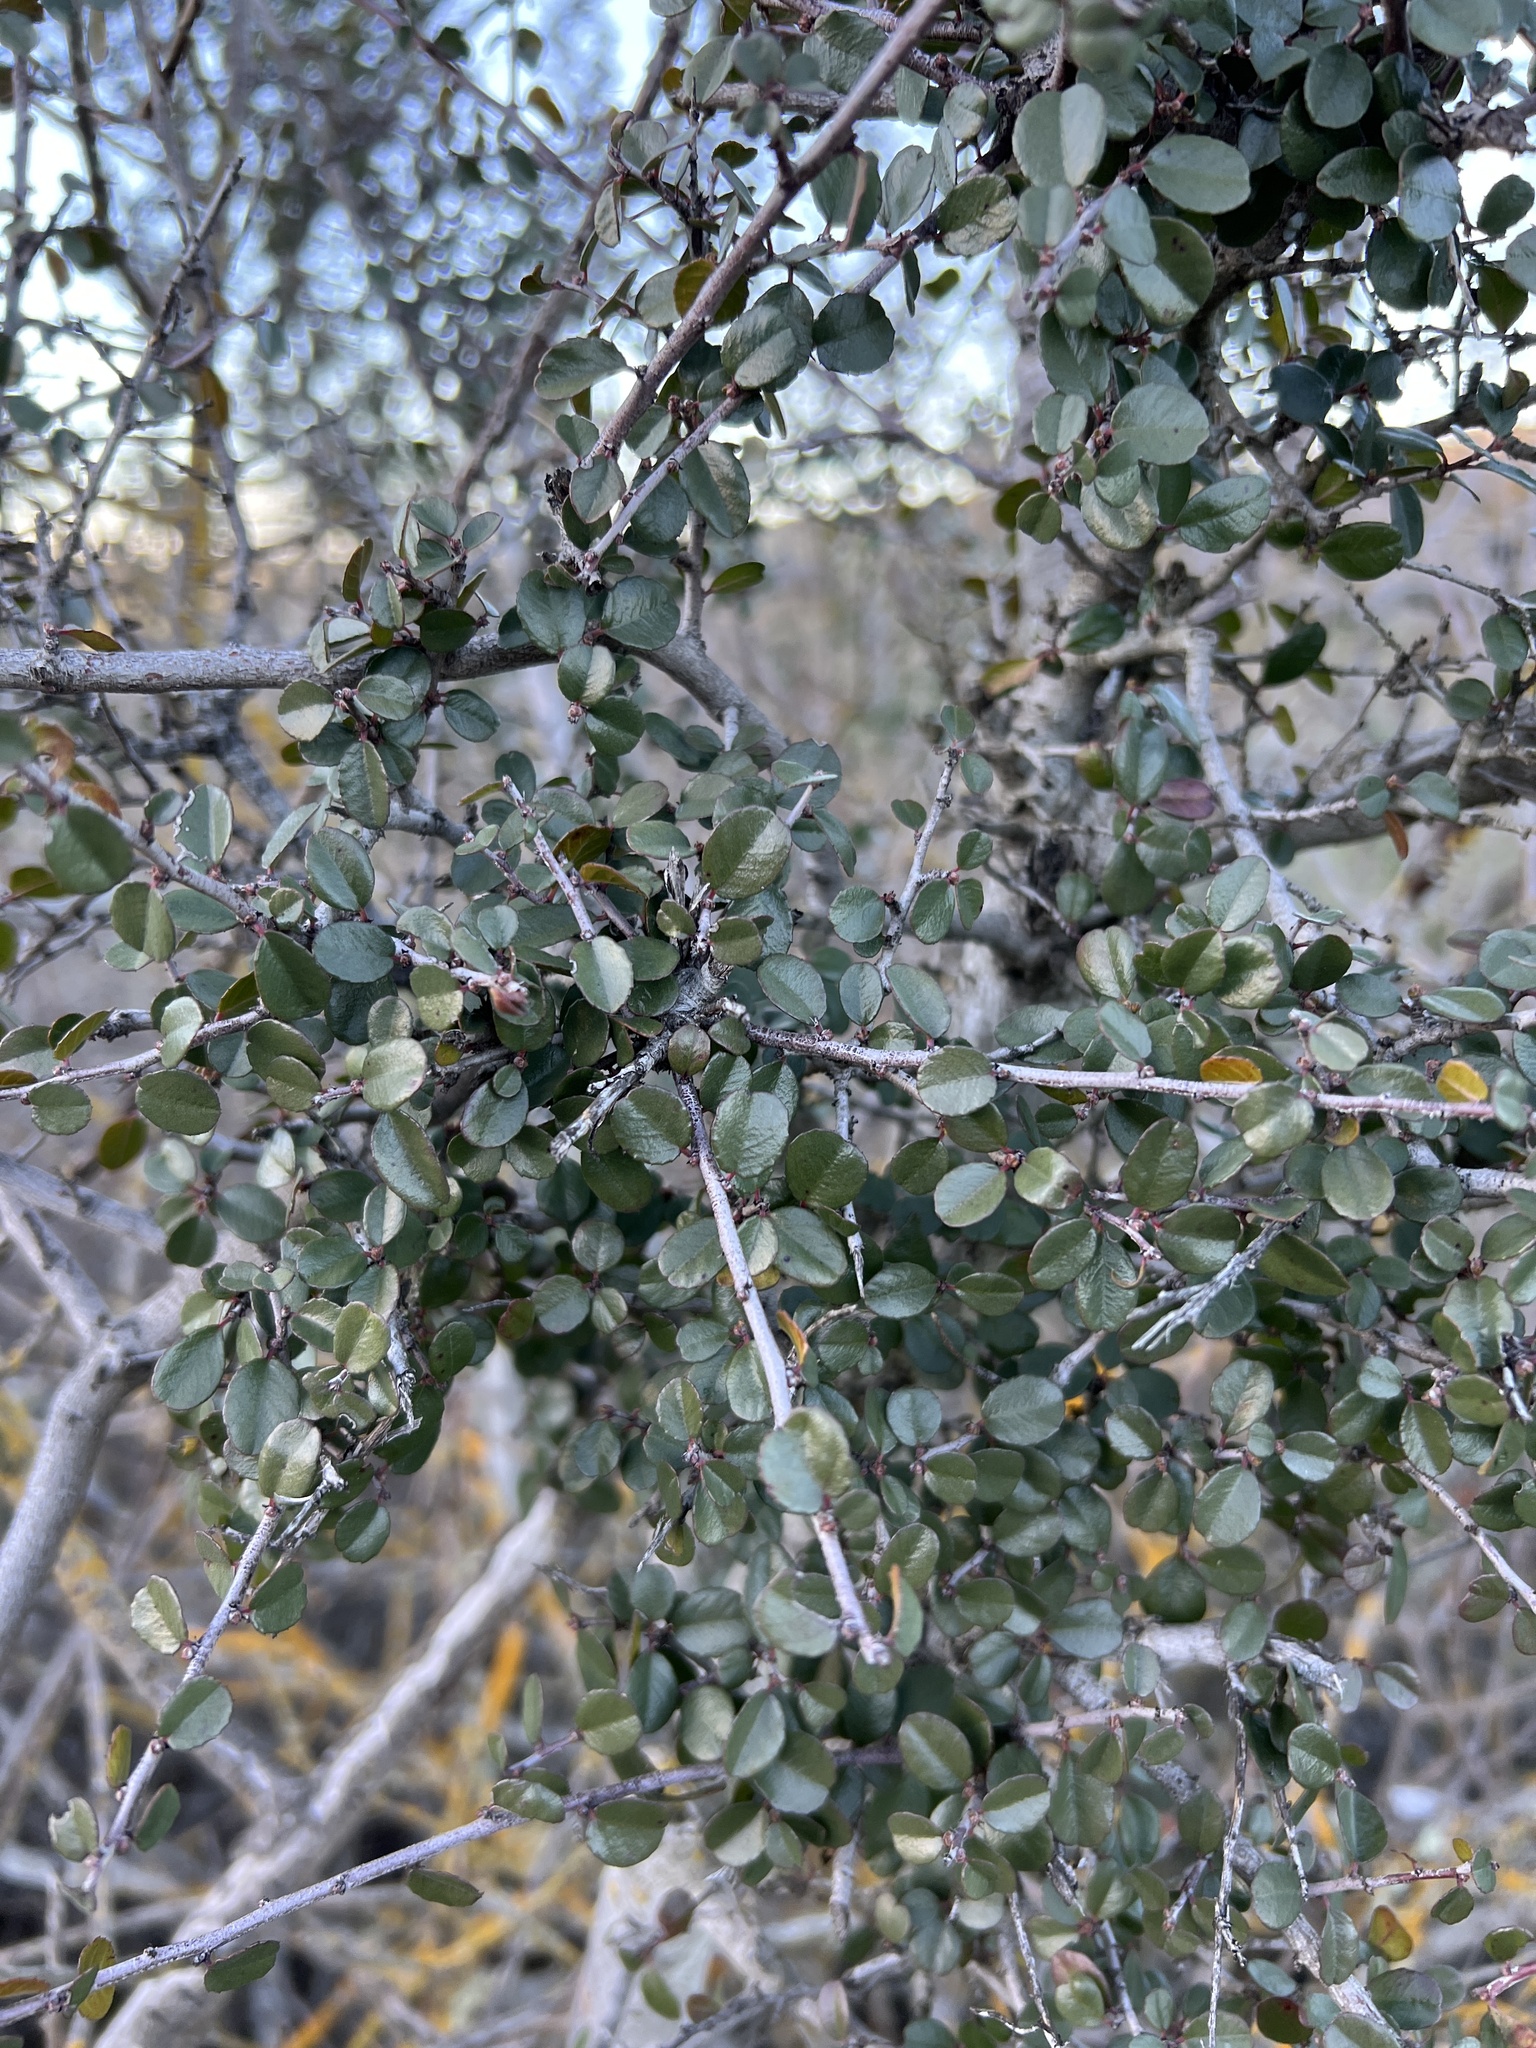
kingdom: Plantae
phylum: Tracheophyta
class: Magnoliopsida
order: Rosales
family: Rhamnaceae
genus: Endotropis
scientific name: Endotropis crocea
